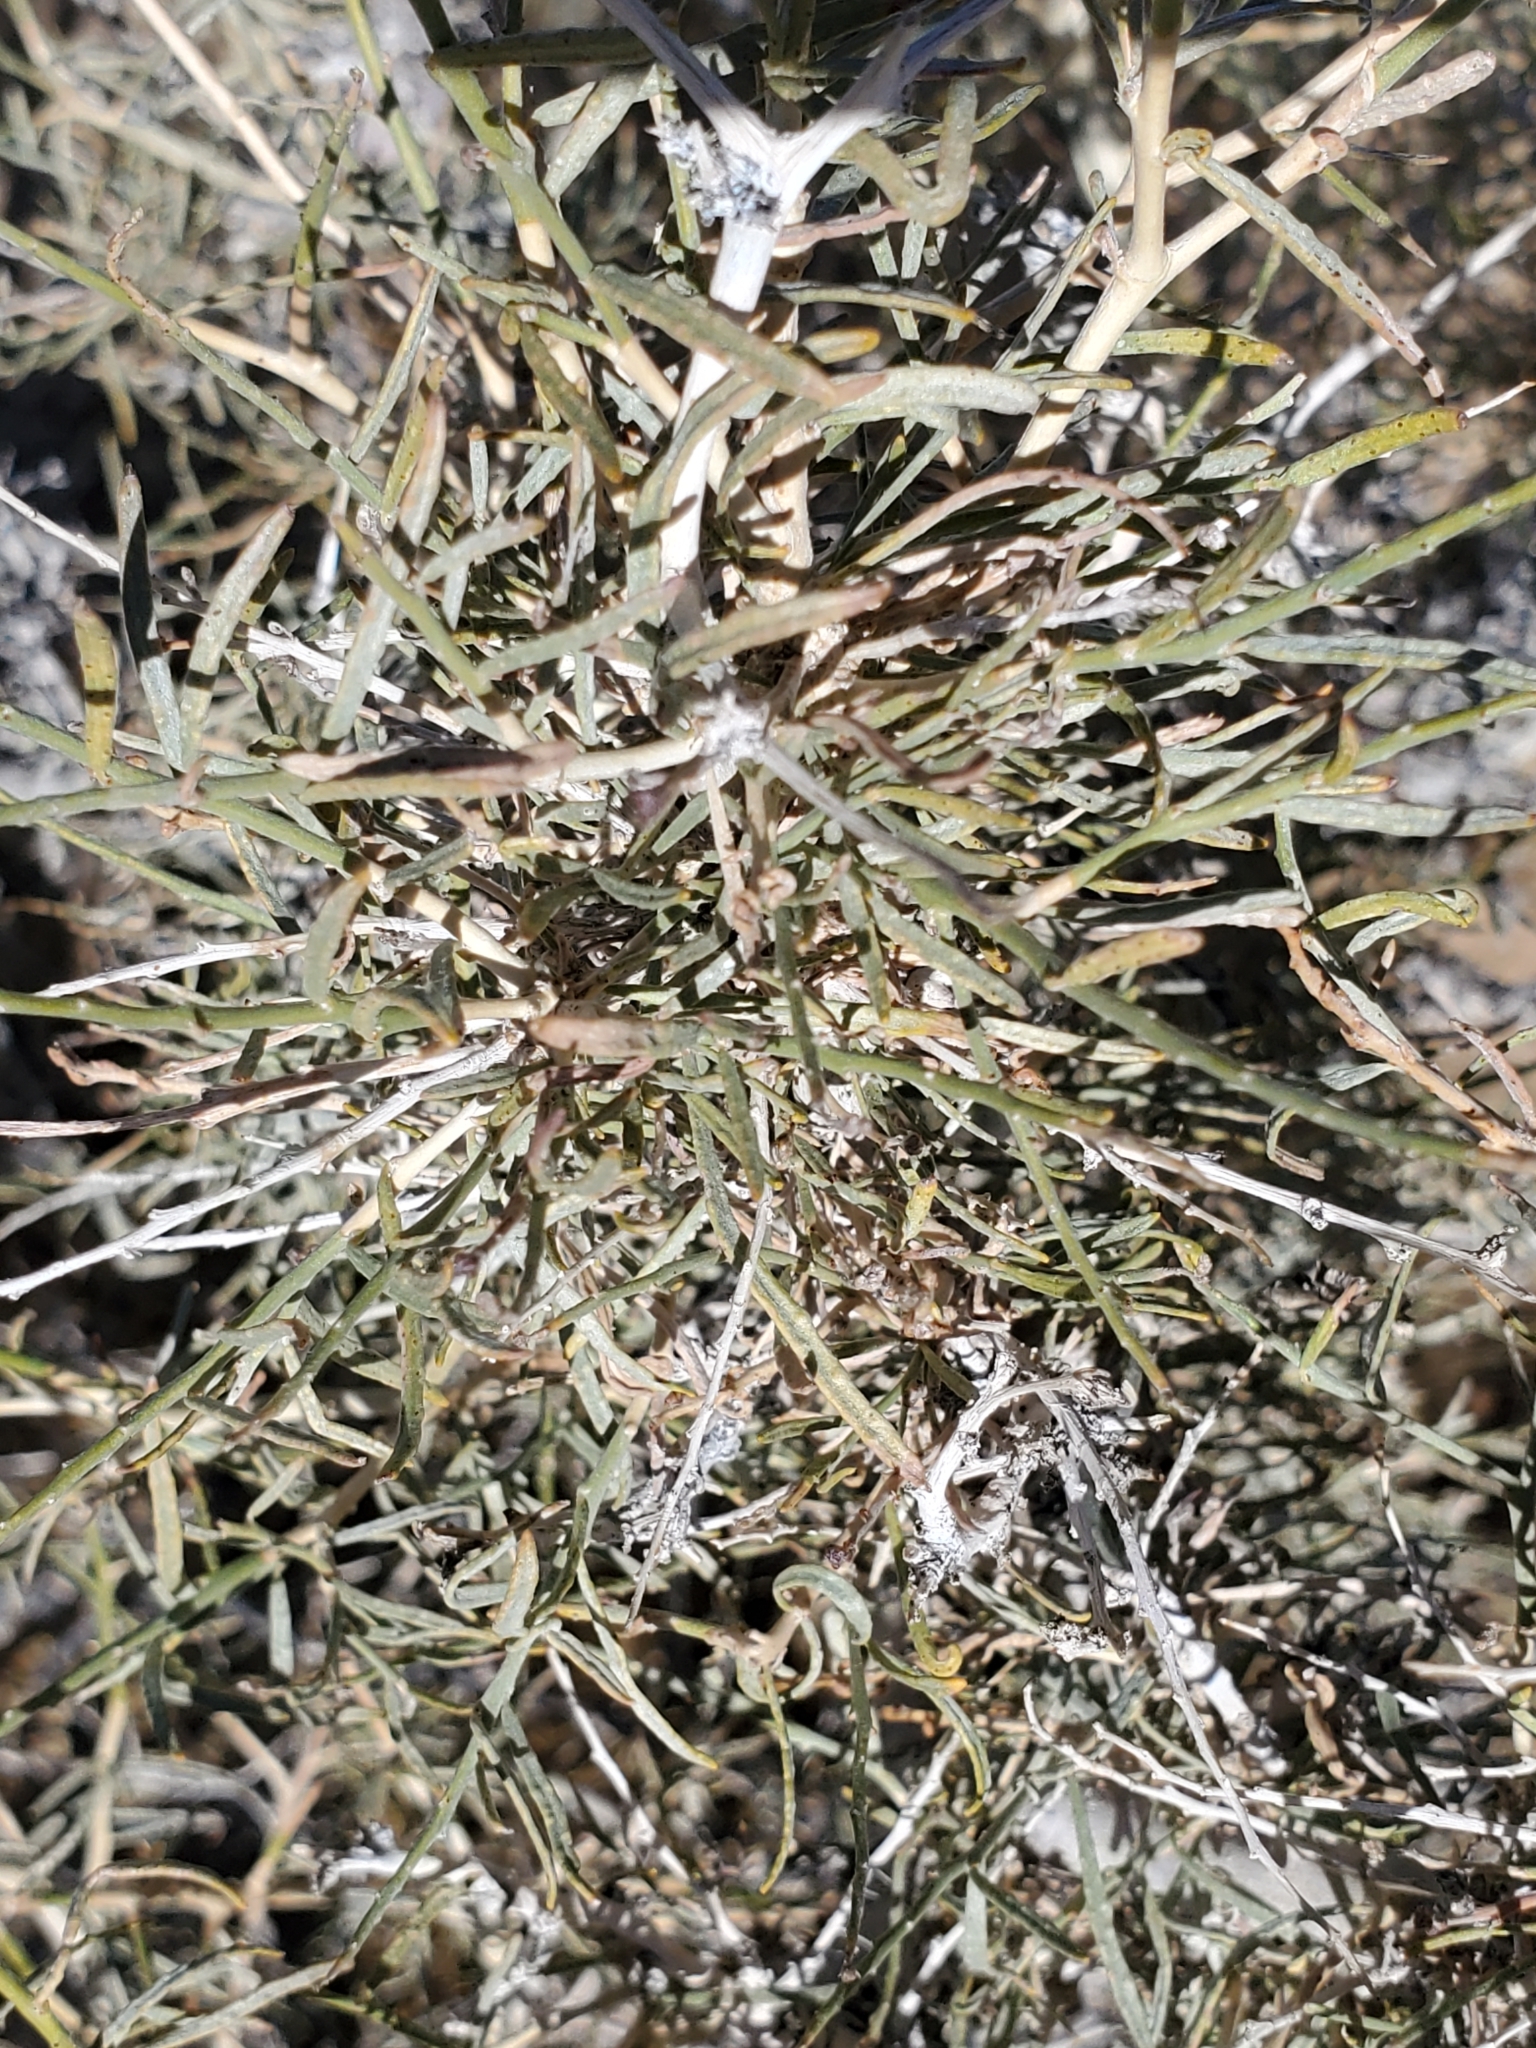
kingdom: Plantae
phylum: Tracheophyta
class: Magnoliopsida
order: Fabales
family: Fabaceae
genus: Psorothamnus
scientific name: Psorothamnus schottii
